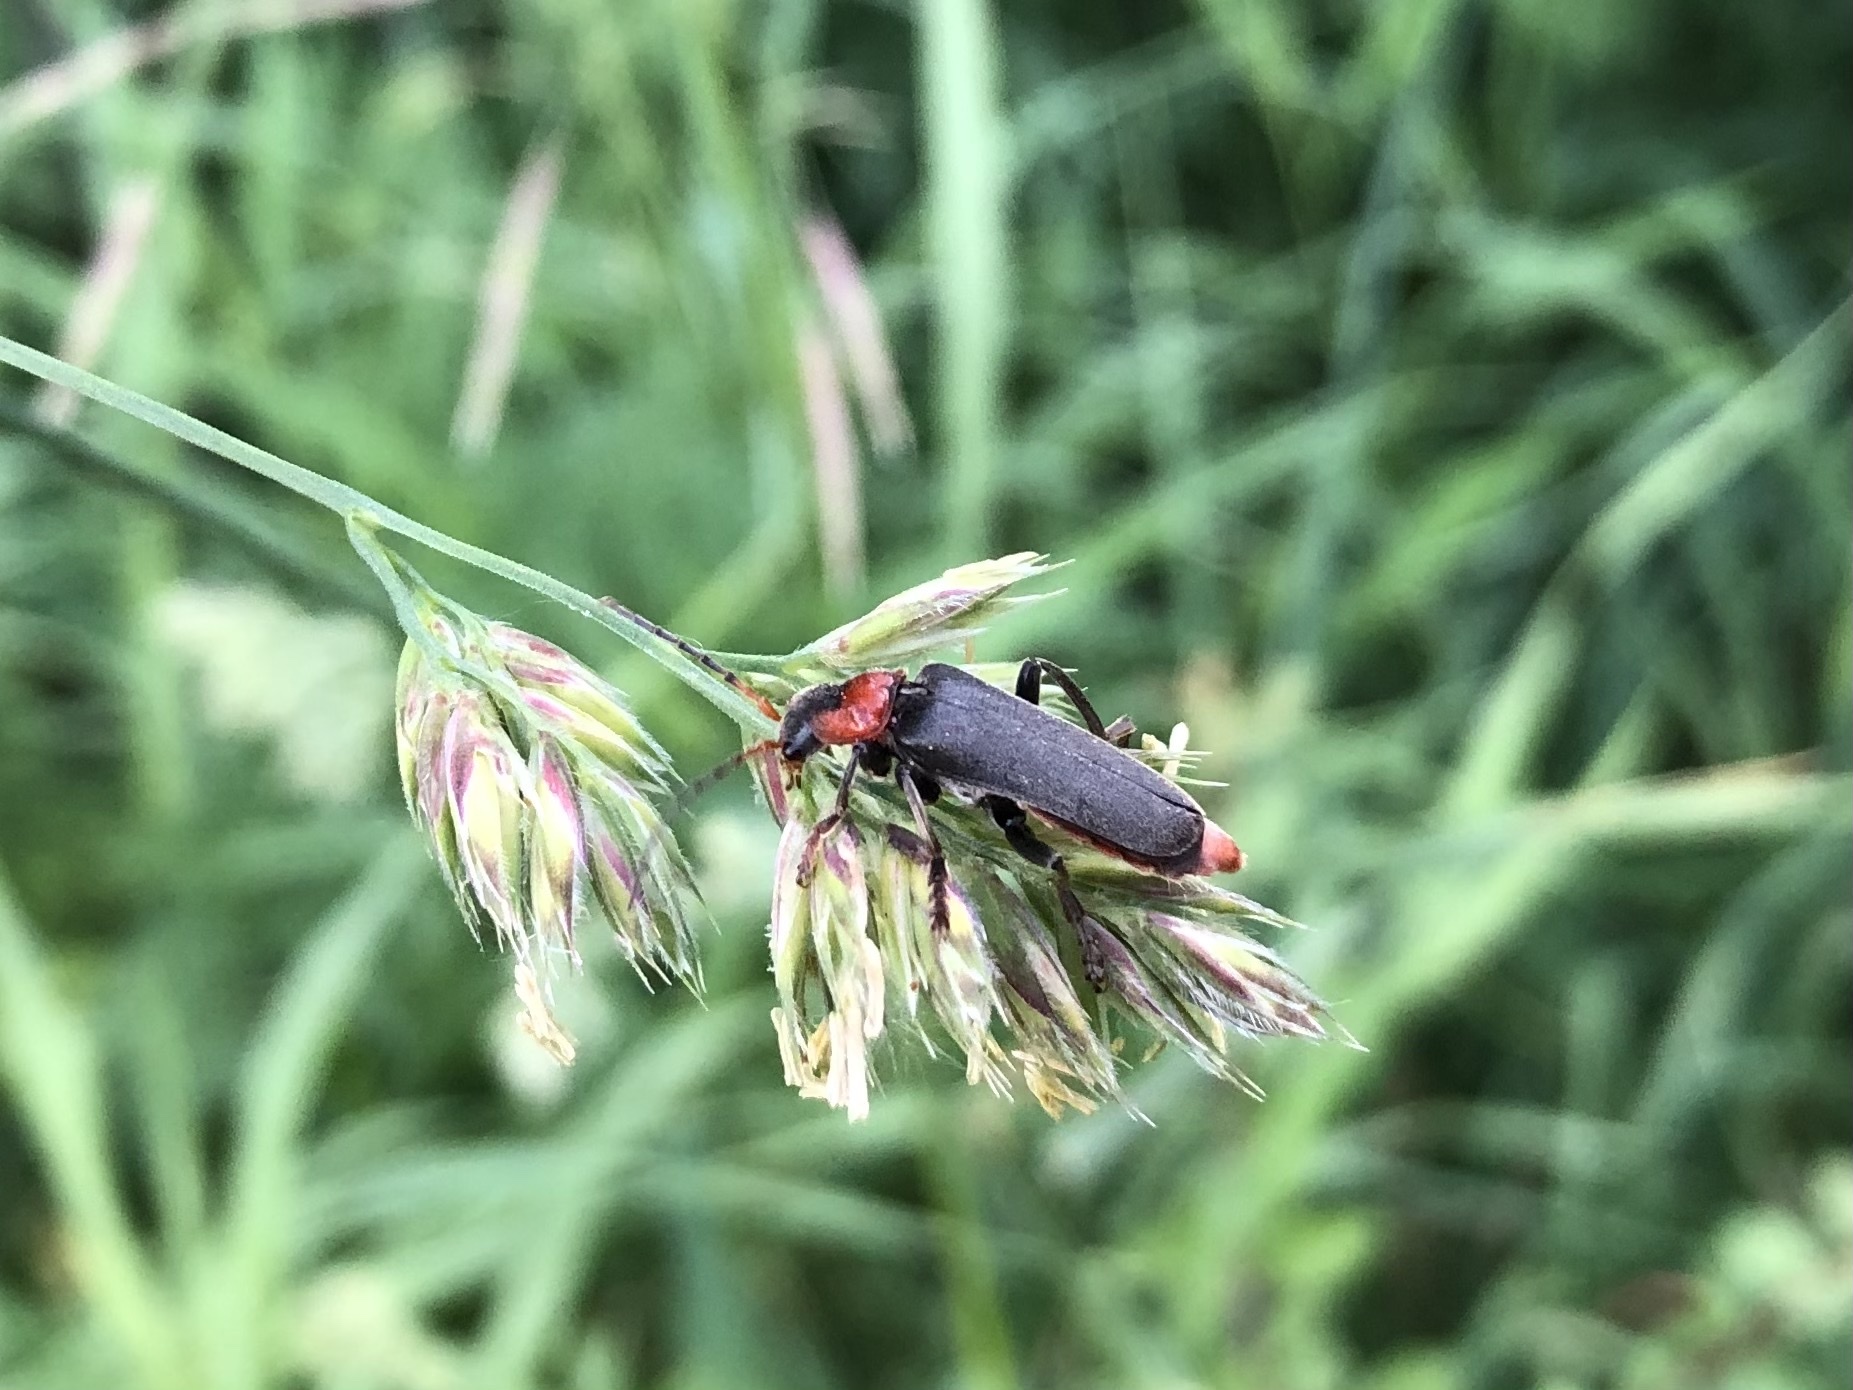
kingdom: Animalia
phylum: Arthropoda
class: Insecta
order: Coleoptera
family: Cantharidae
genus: Cantharis
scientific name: Cantharis fusca
